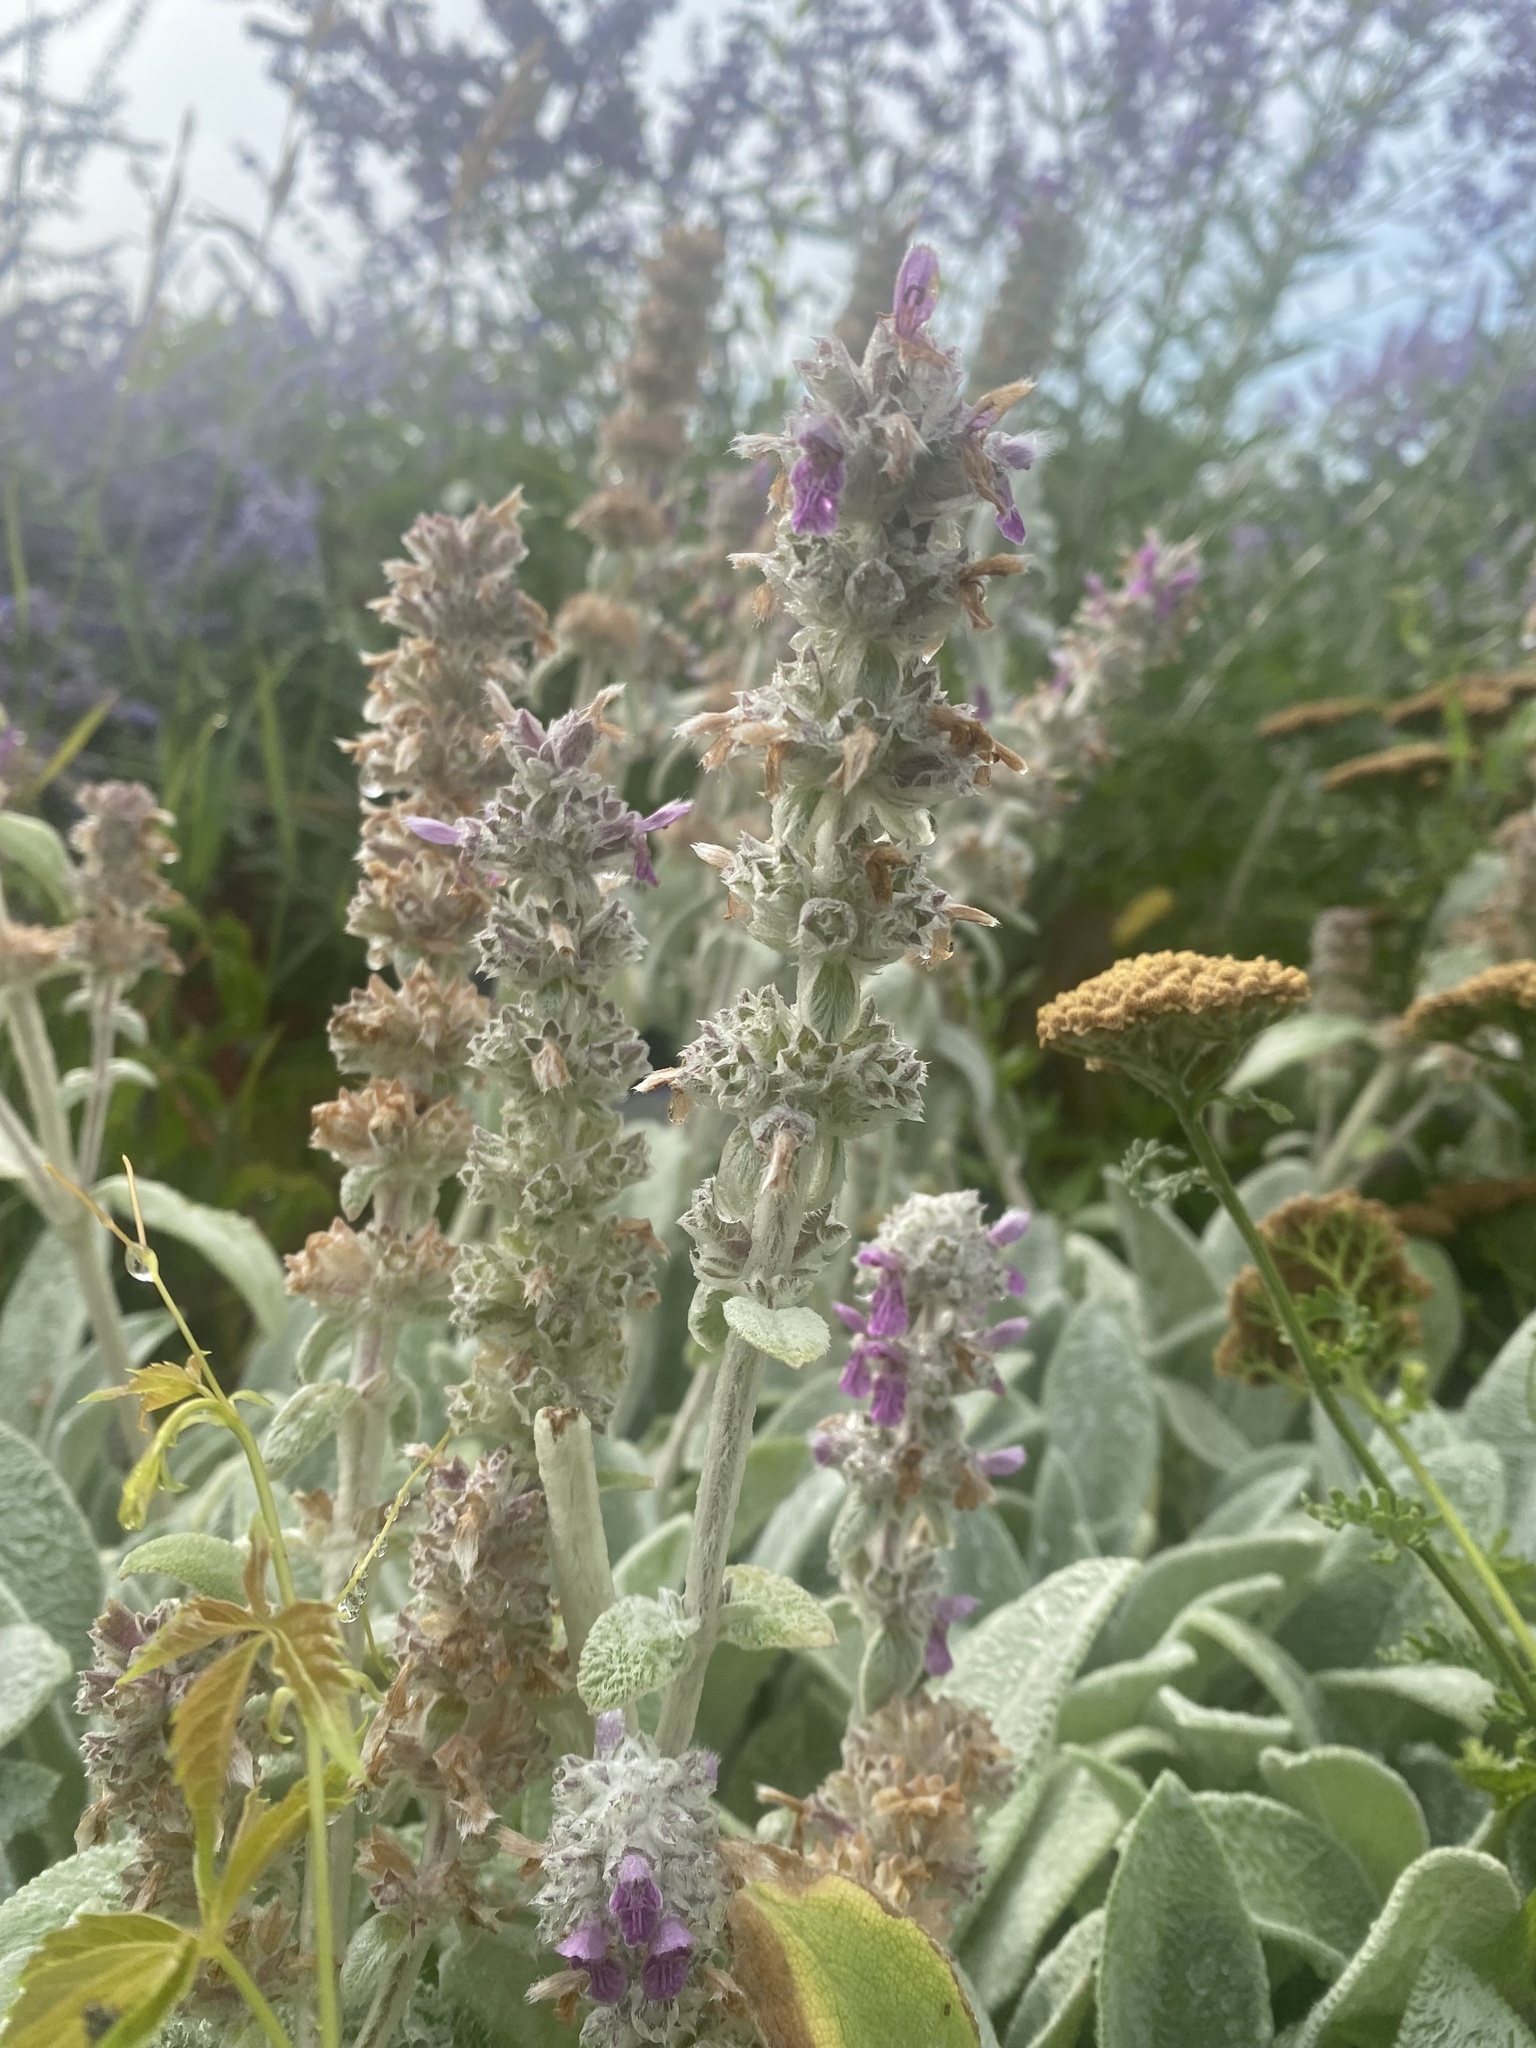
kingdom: Plantae
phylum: Tracheophyta
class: Magnoliopsida
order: Lamiales
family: Lamiaceae
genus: Stachys
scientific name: Stachys byzantina
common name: Lamb's-ear
